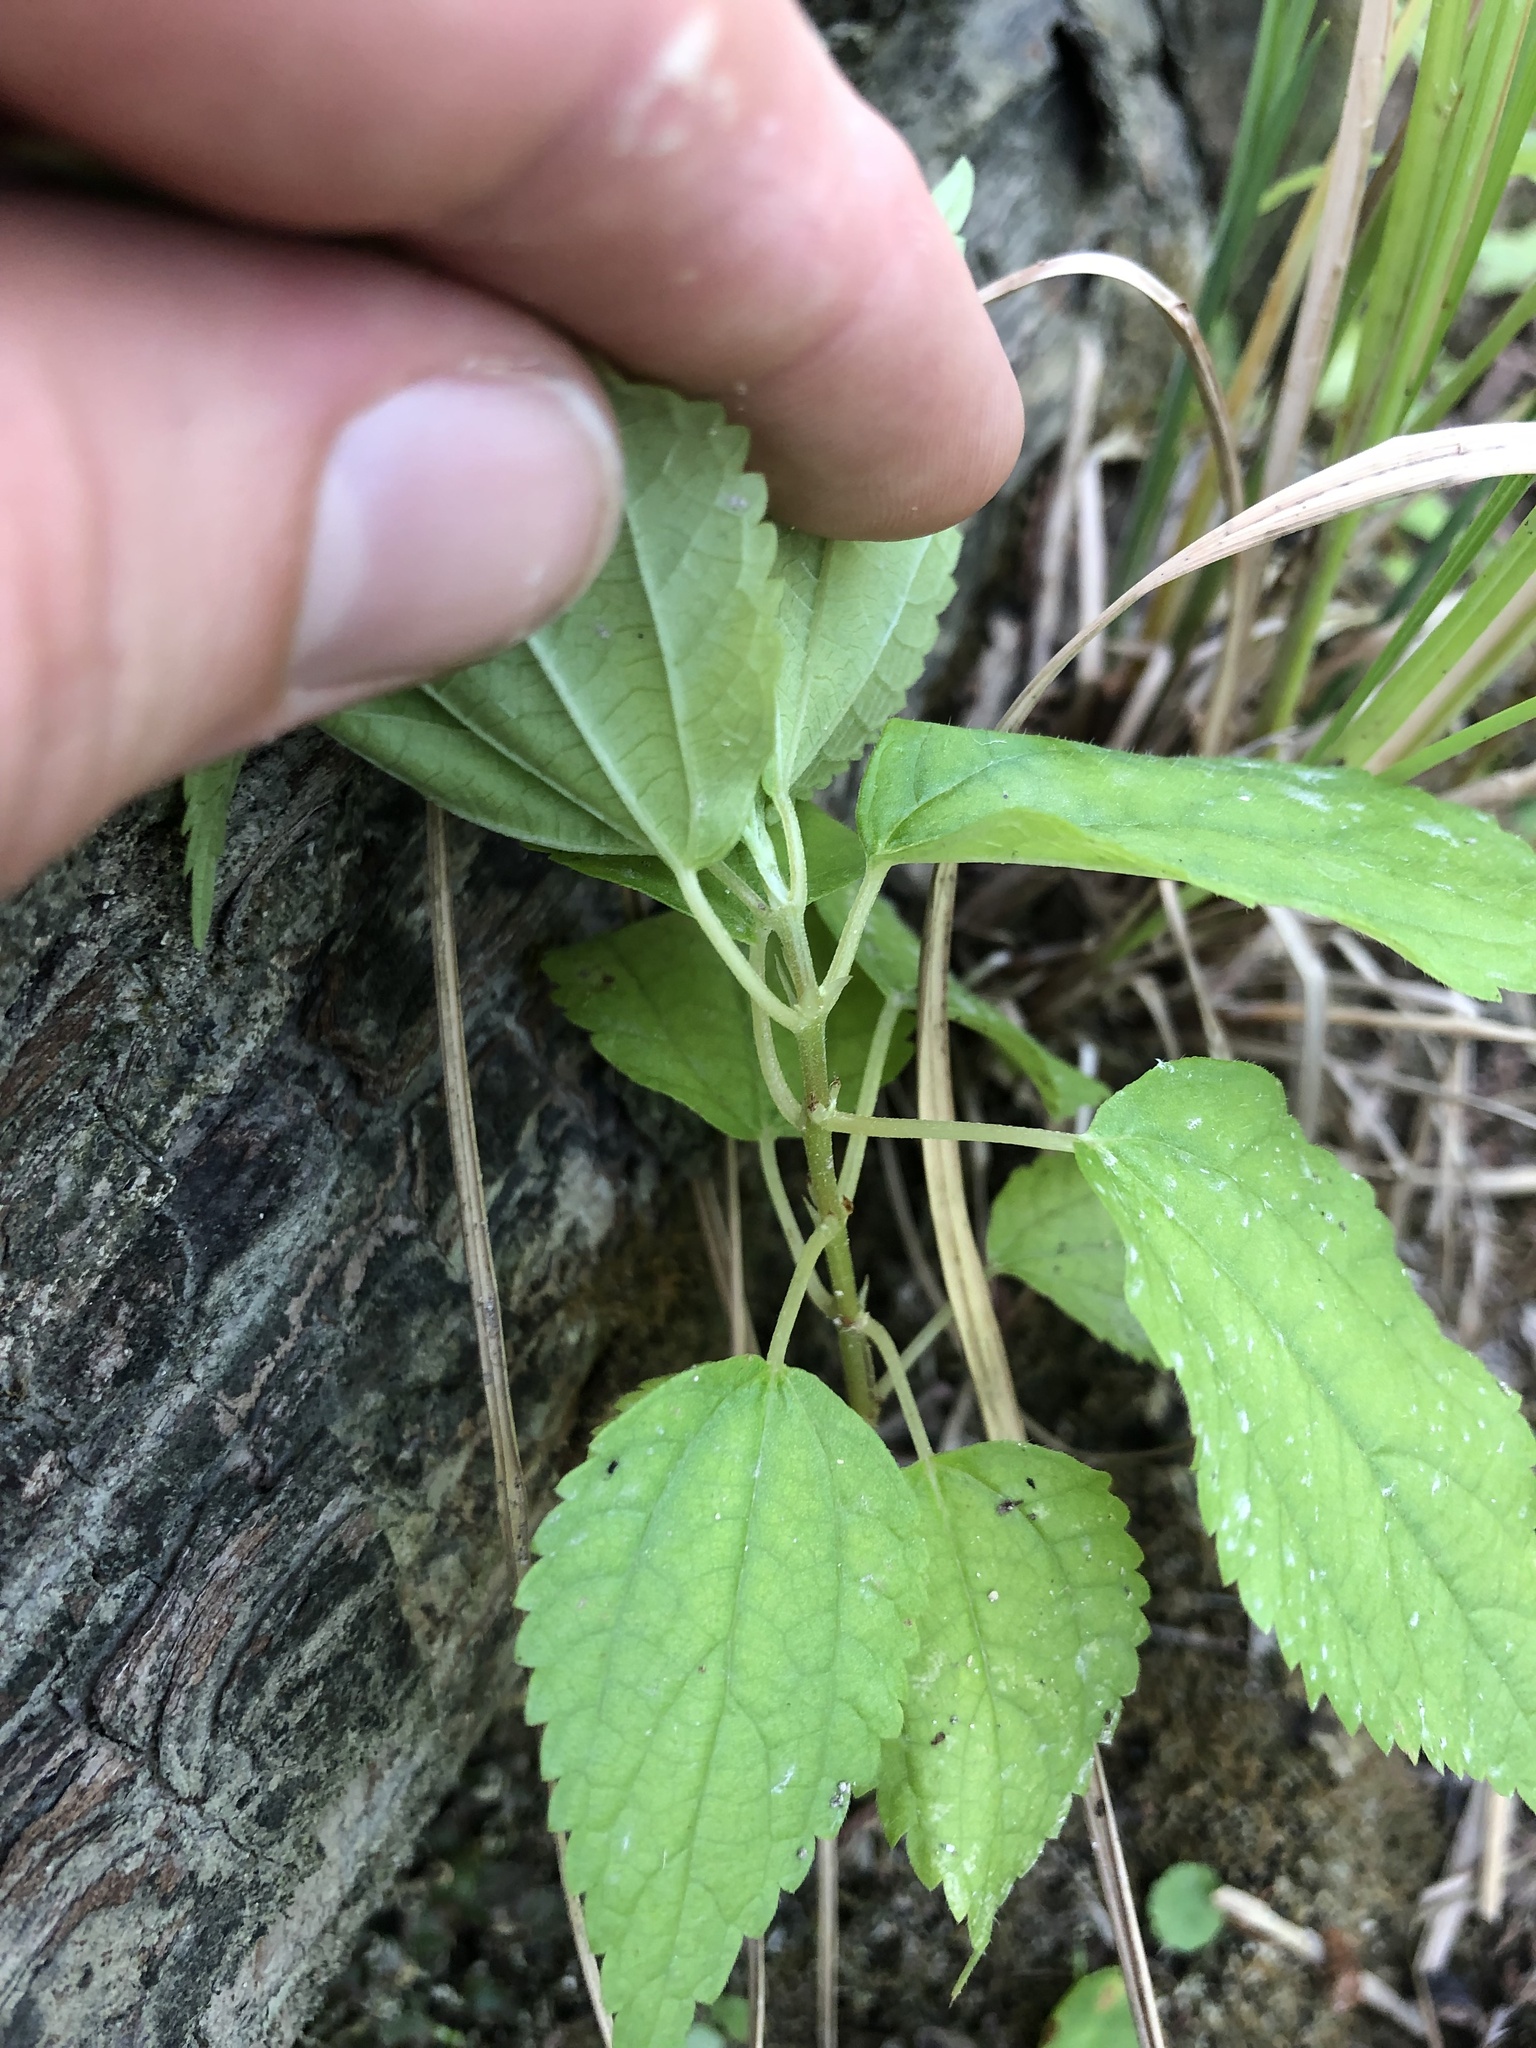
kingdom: Plantae
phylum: Tracheophyta
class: Magnoliopsida
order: Rosales
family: Urticaceae
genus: Boehmeria
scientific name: Boehmeria cylindrica
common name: Bog-hemp
